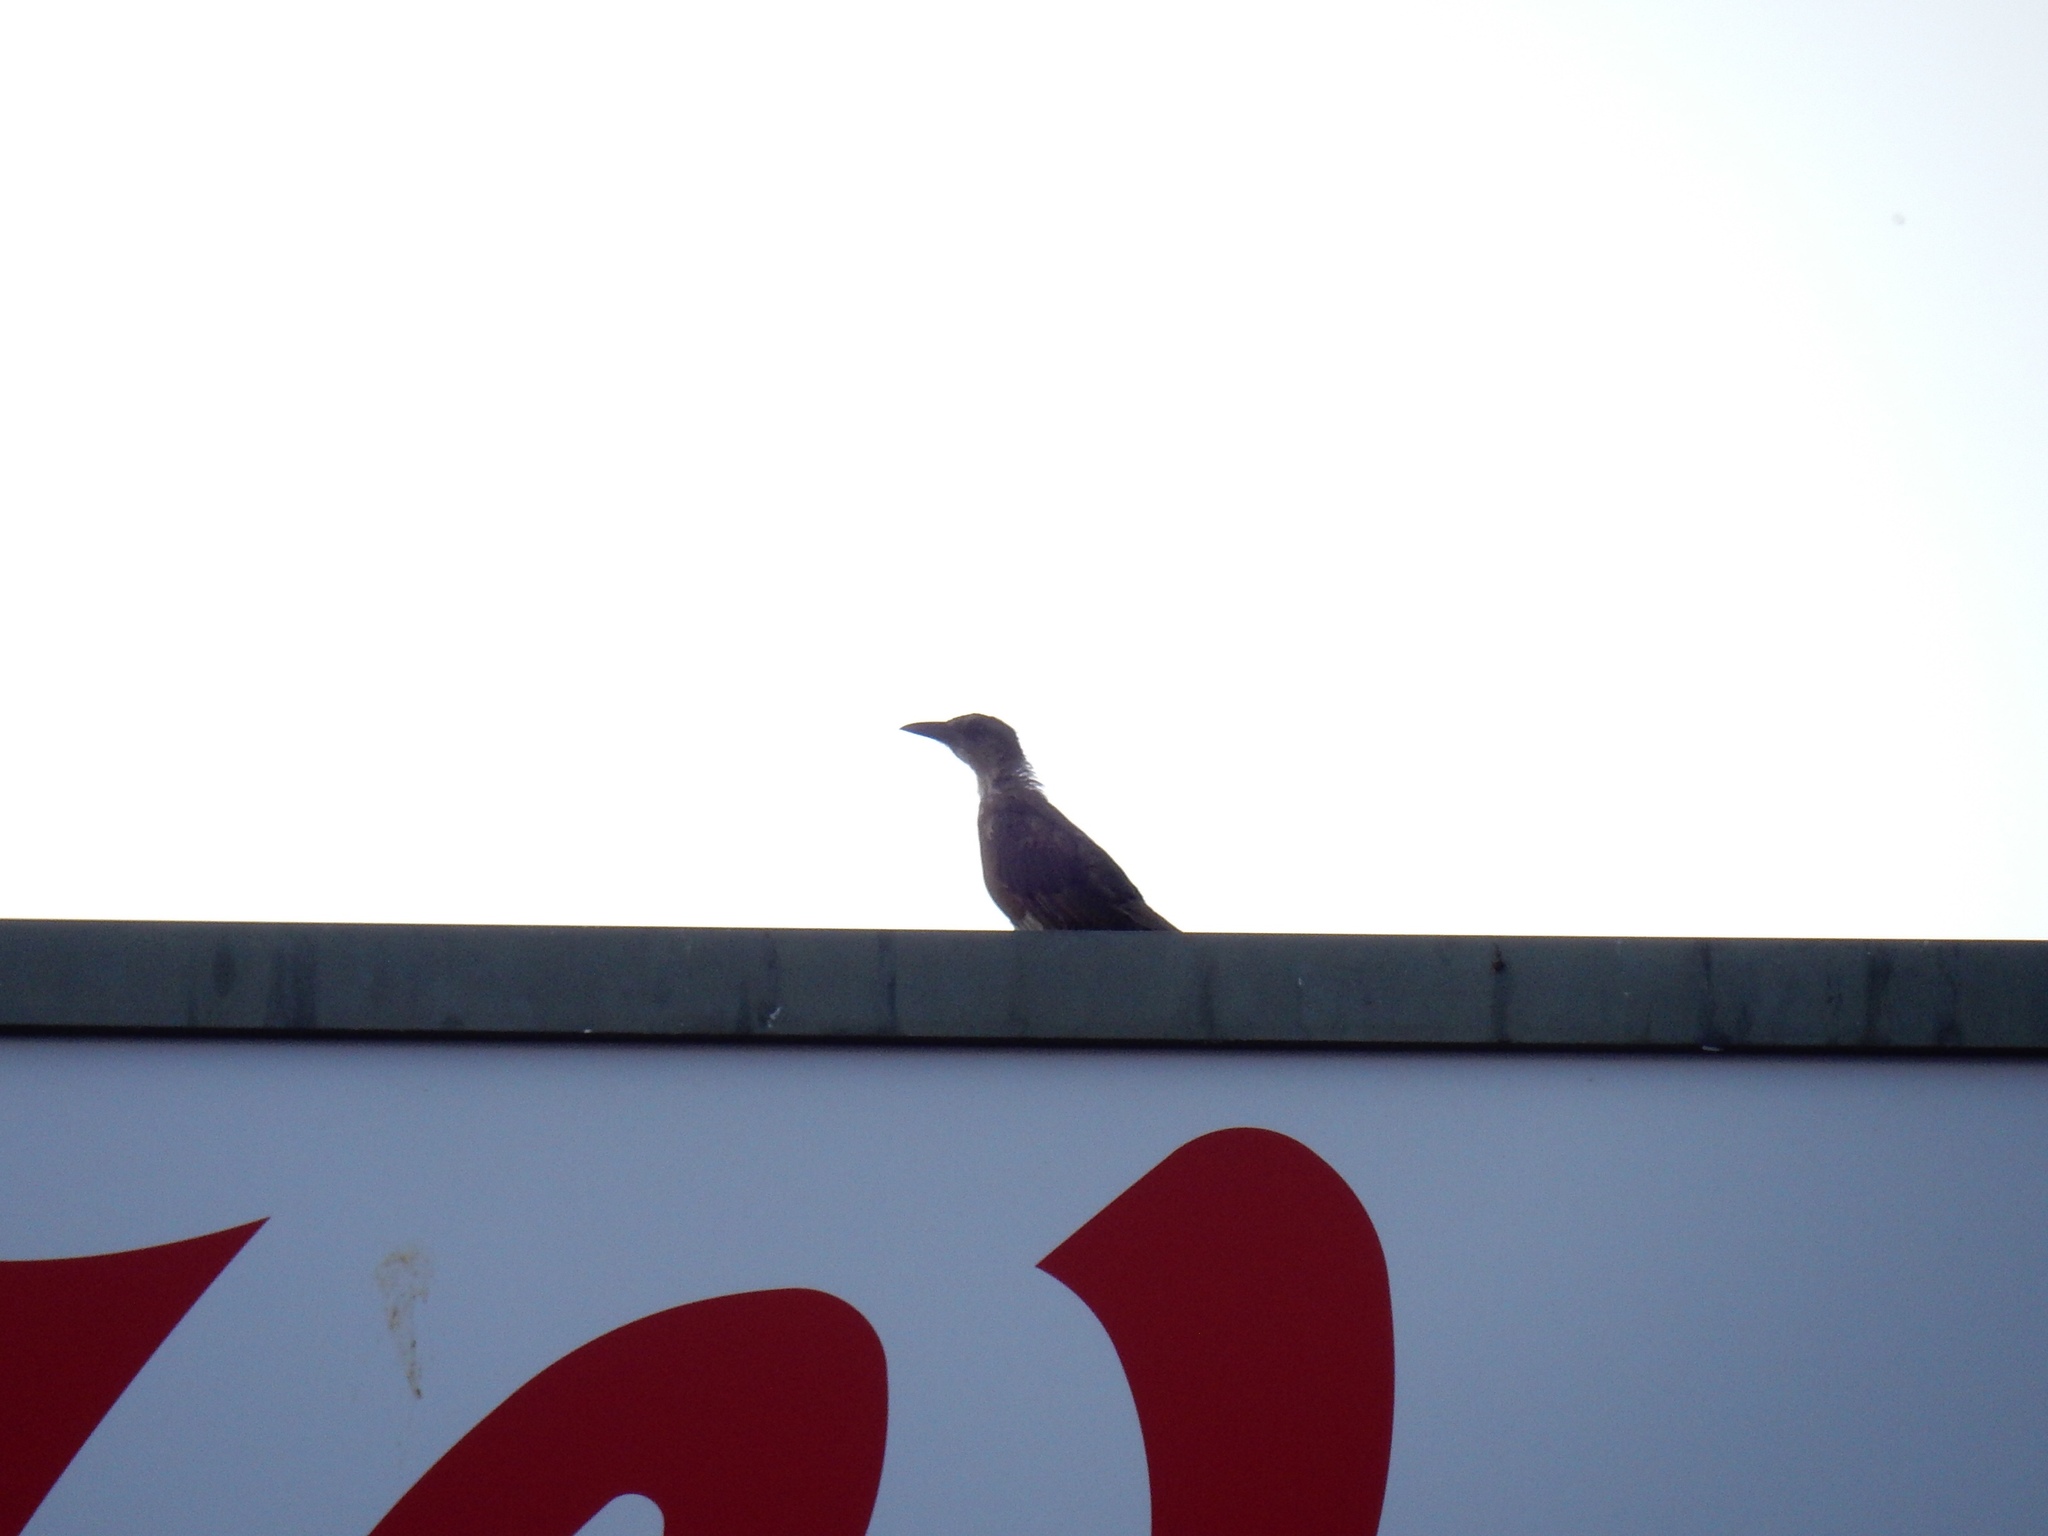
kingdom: Animalia
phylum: Chordata
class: Aves
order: Passeriformes
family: Icteridae
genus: Quiscalus
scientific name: Quiscalus mexicanus
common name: Great-tailed grackle
